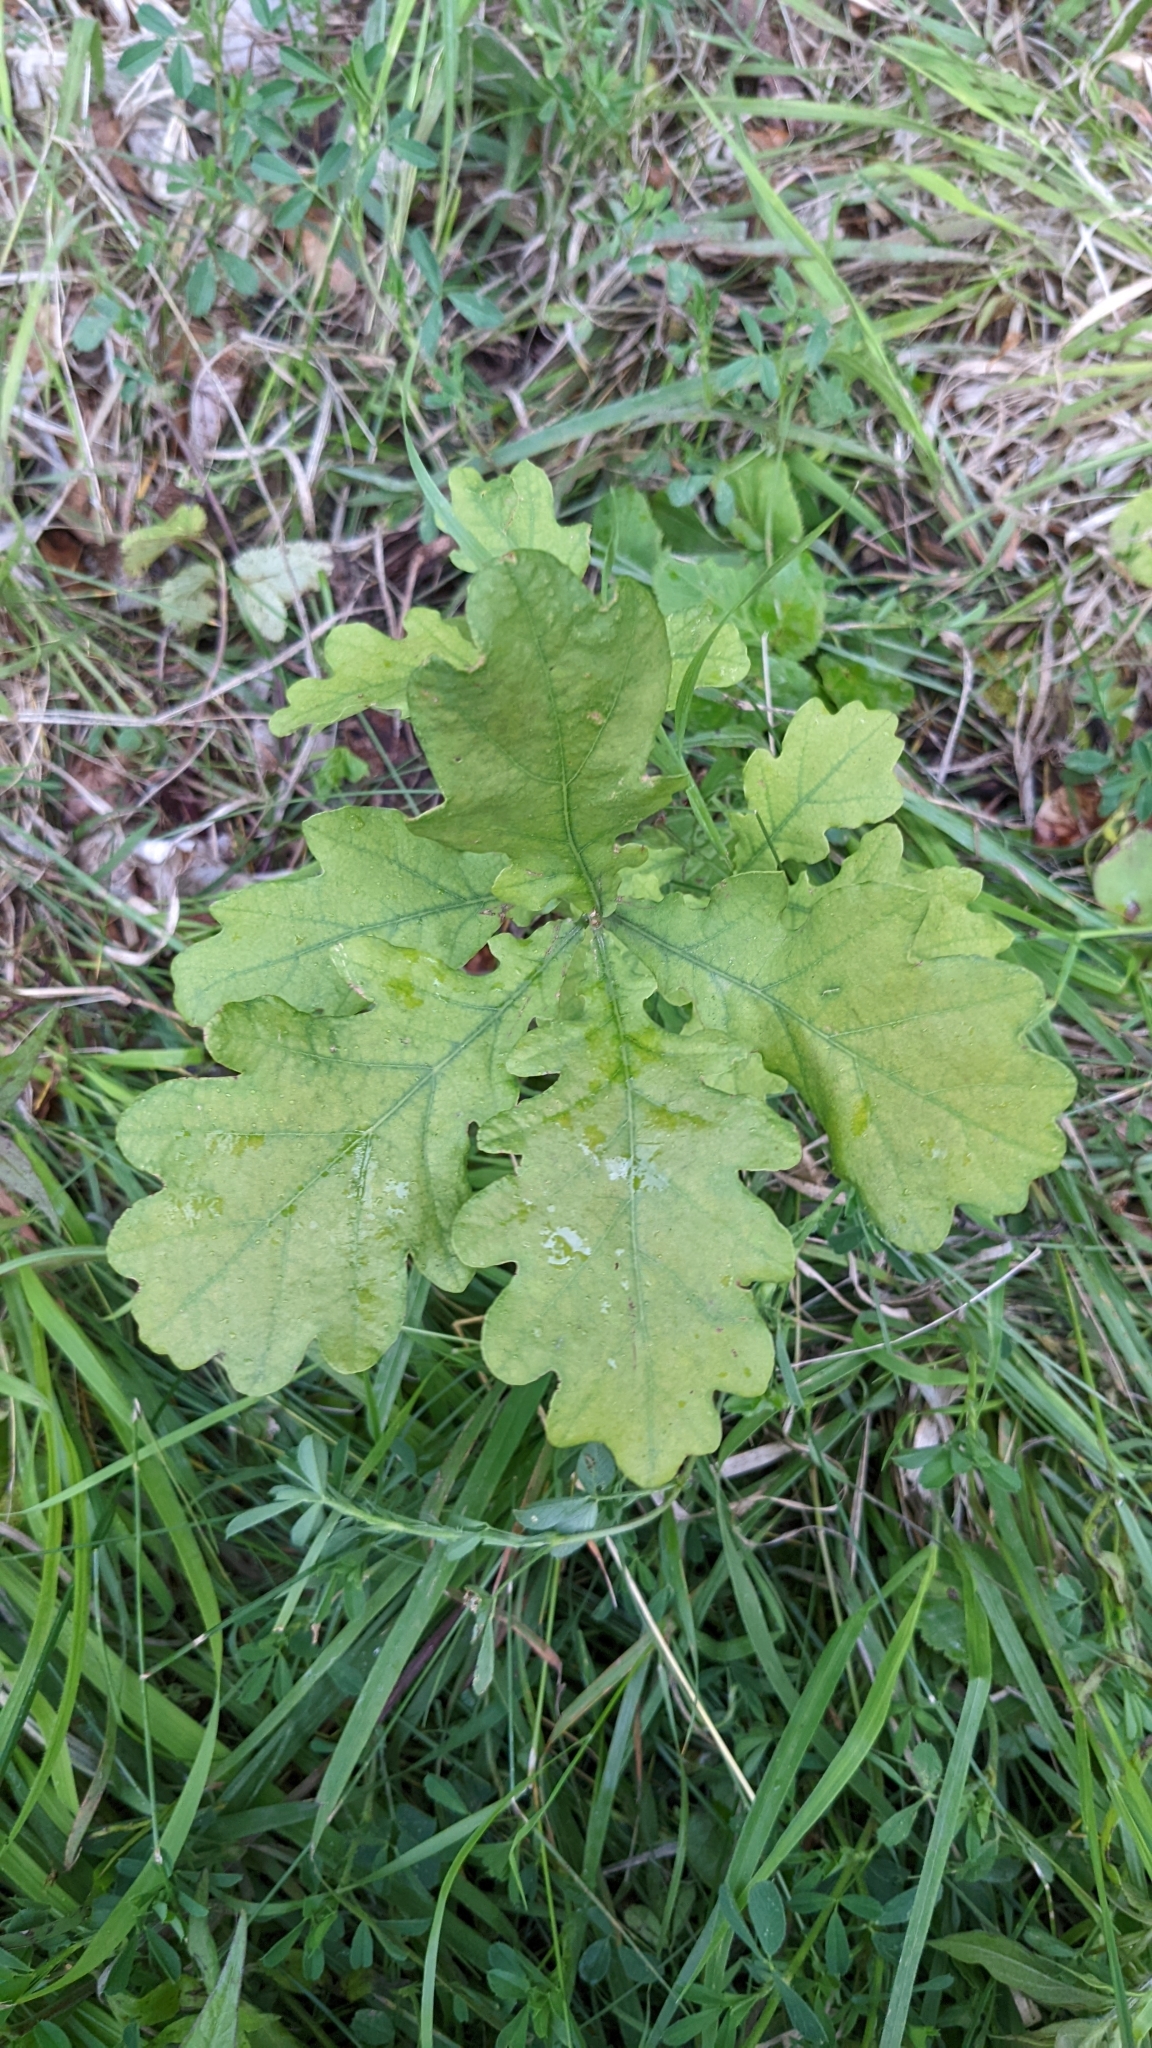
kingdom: Plantae
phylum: Tracheophyta
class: Magnoliopsida
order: Fagales
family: Fagaceae
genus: Quercus
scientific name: Quercus robur
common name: Pedunculate oak
